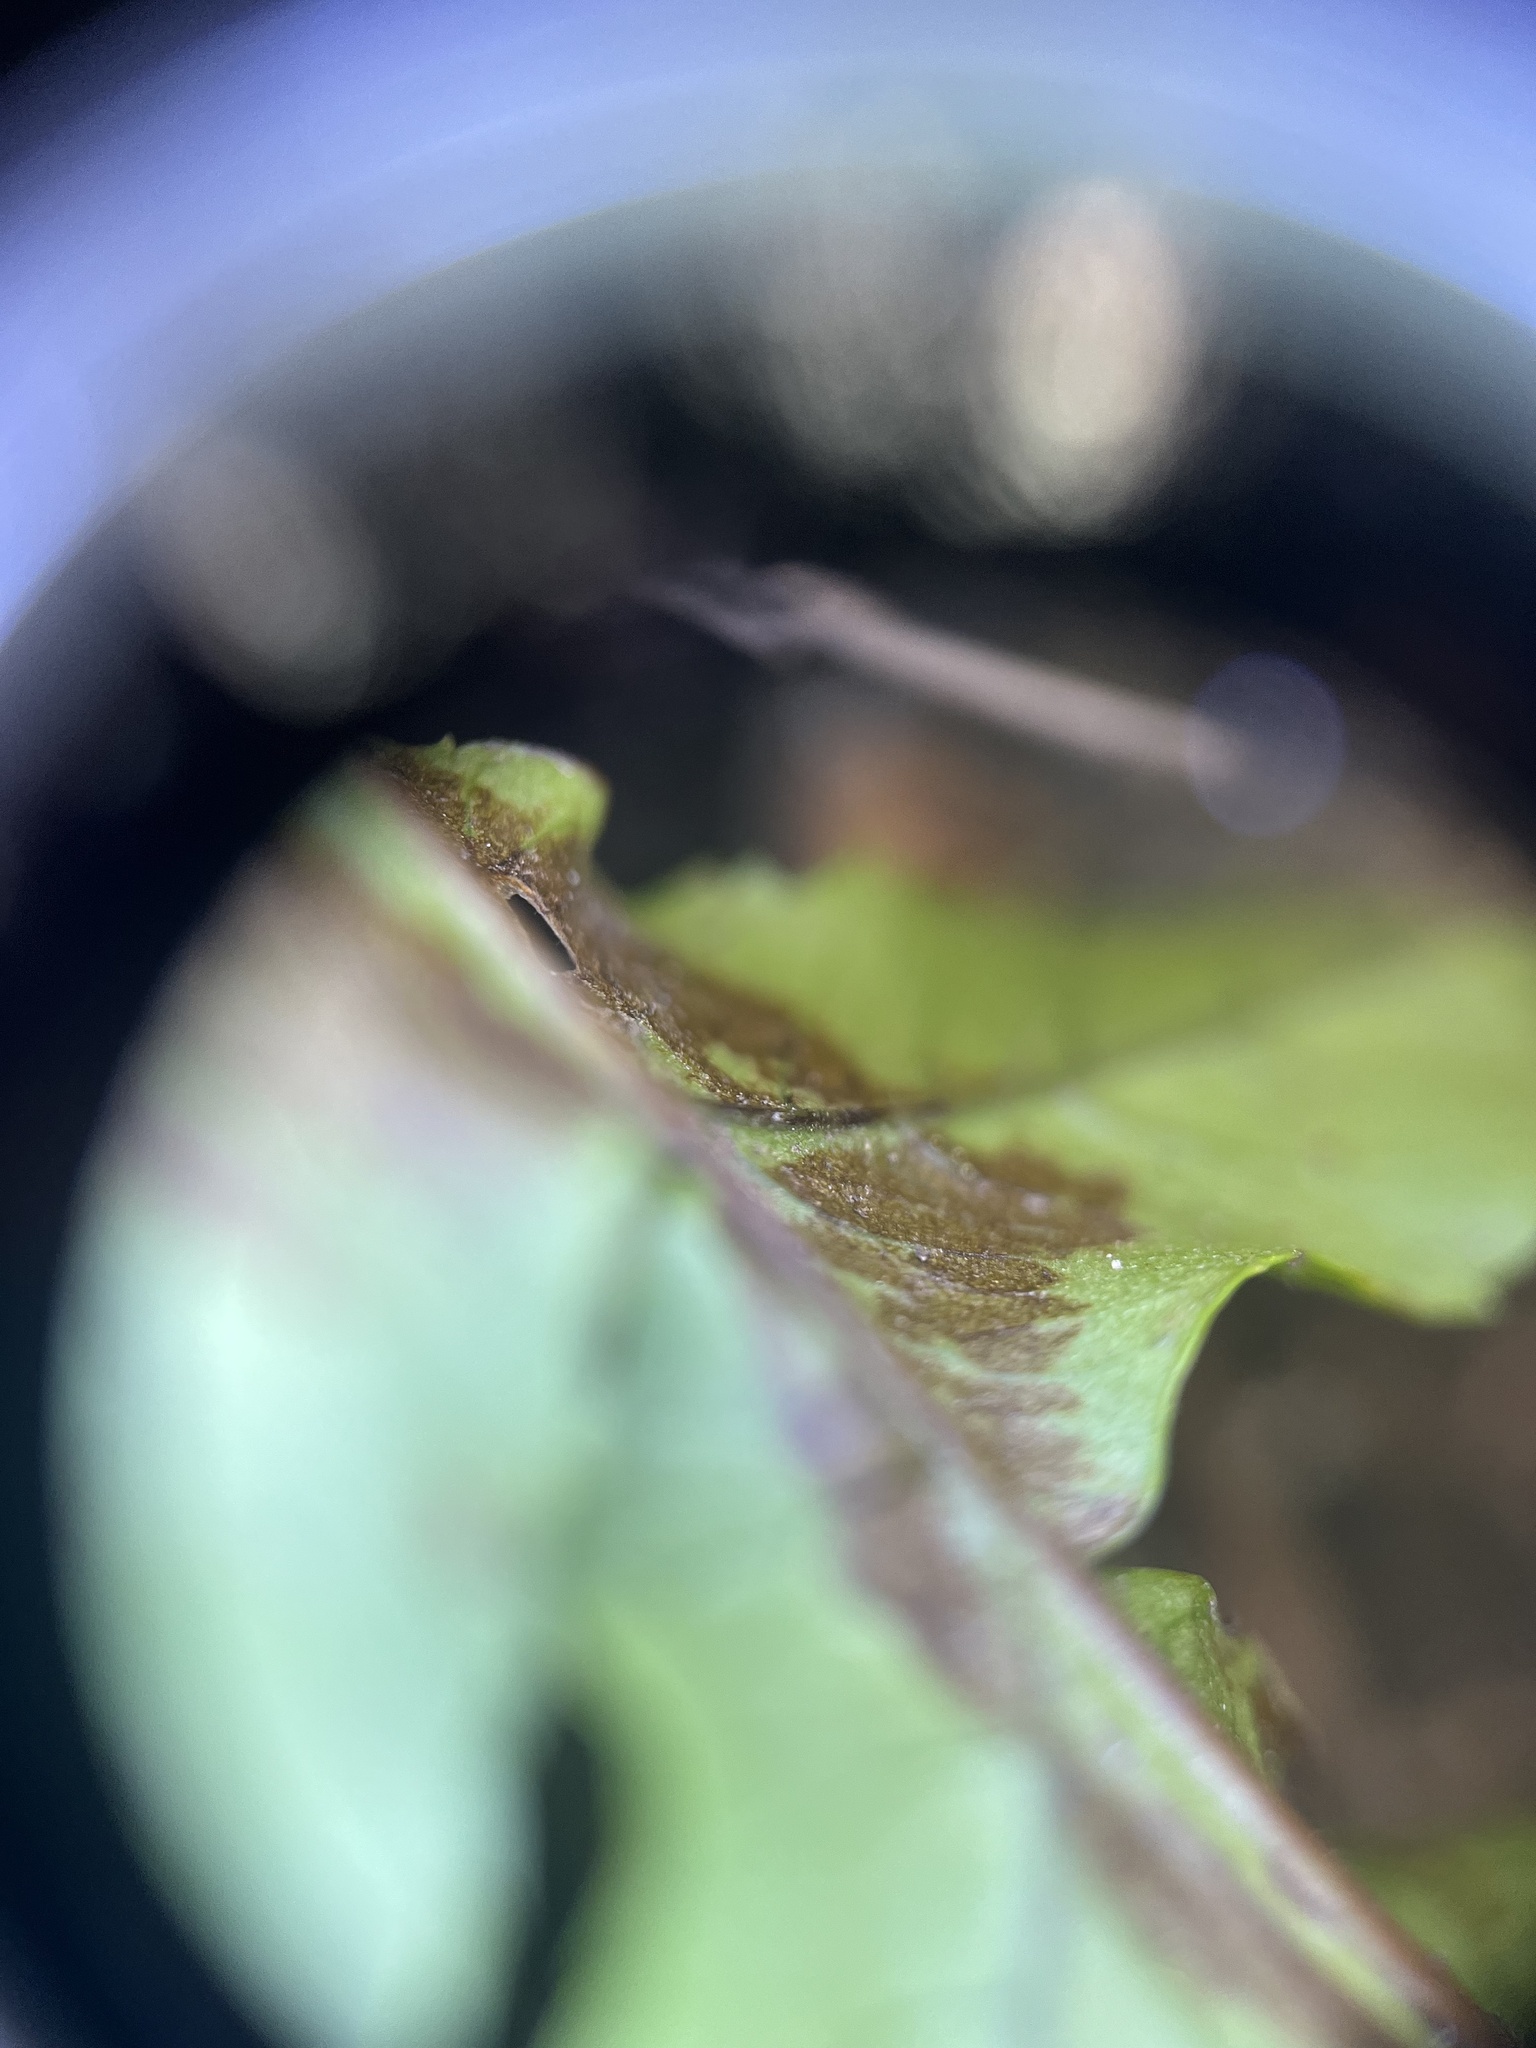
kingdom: Plantae
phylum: Tracheophyta
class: Polypodiopsida
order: Polypodiales
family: Polypodiaceae
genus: Polypodium
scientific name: Polypodium glycyrrhiza
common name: Licorice fern
